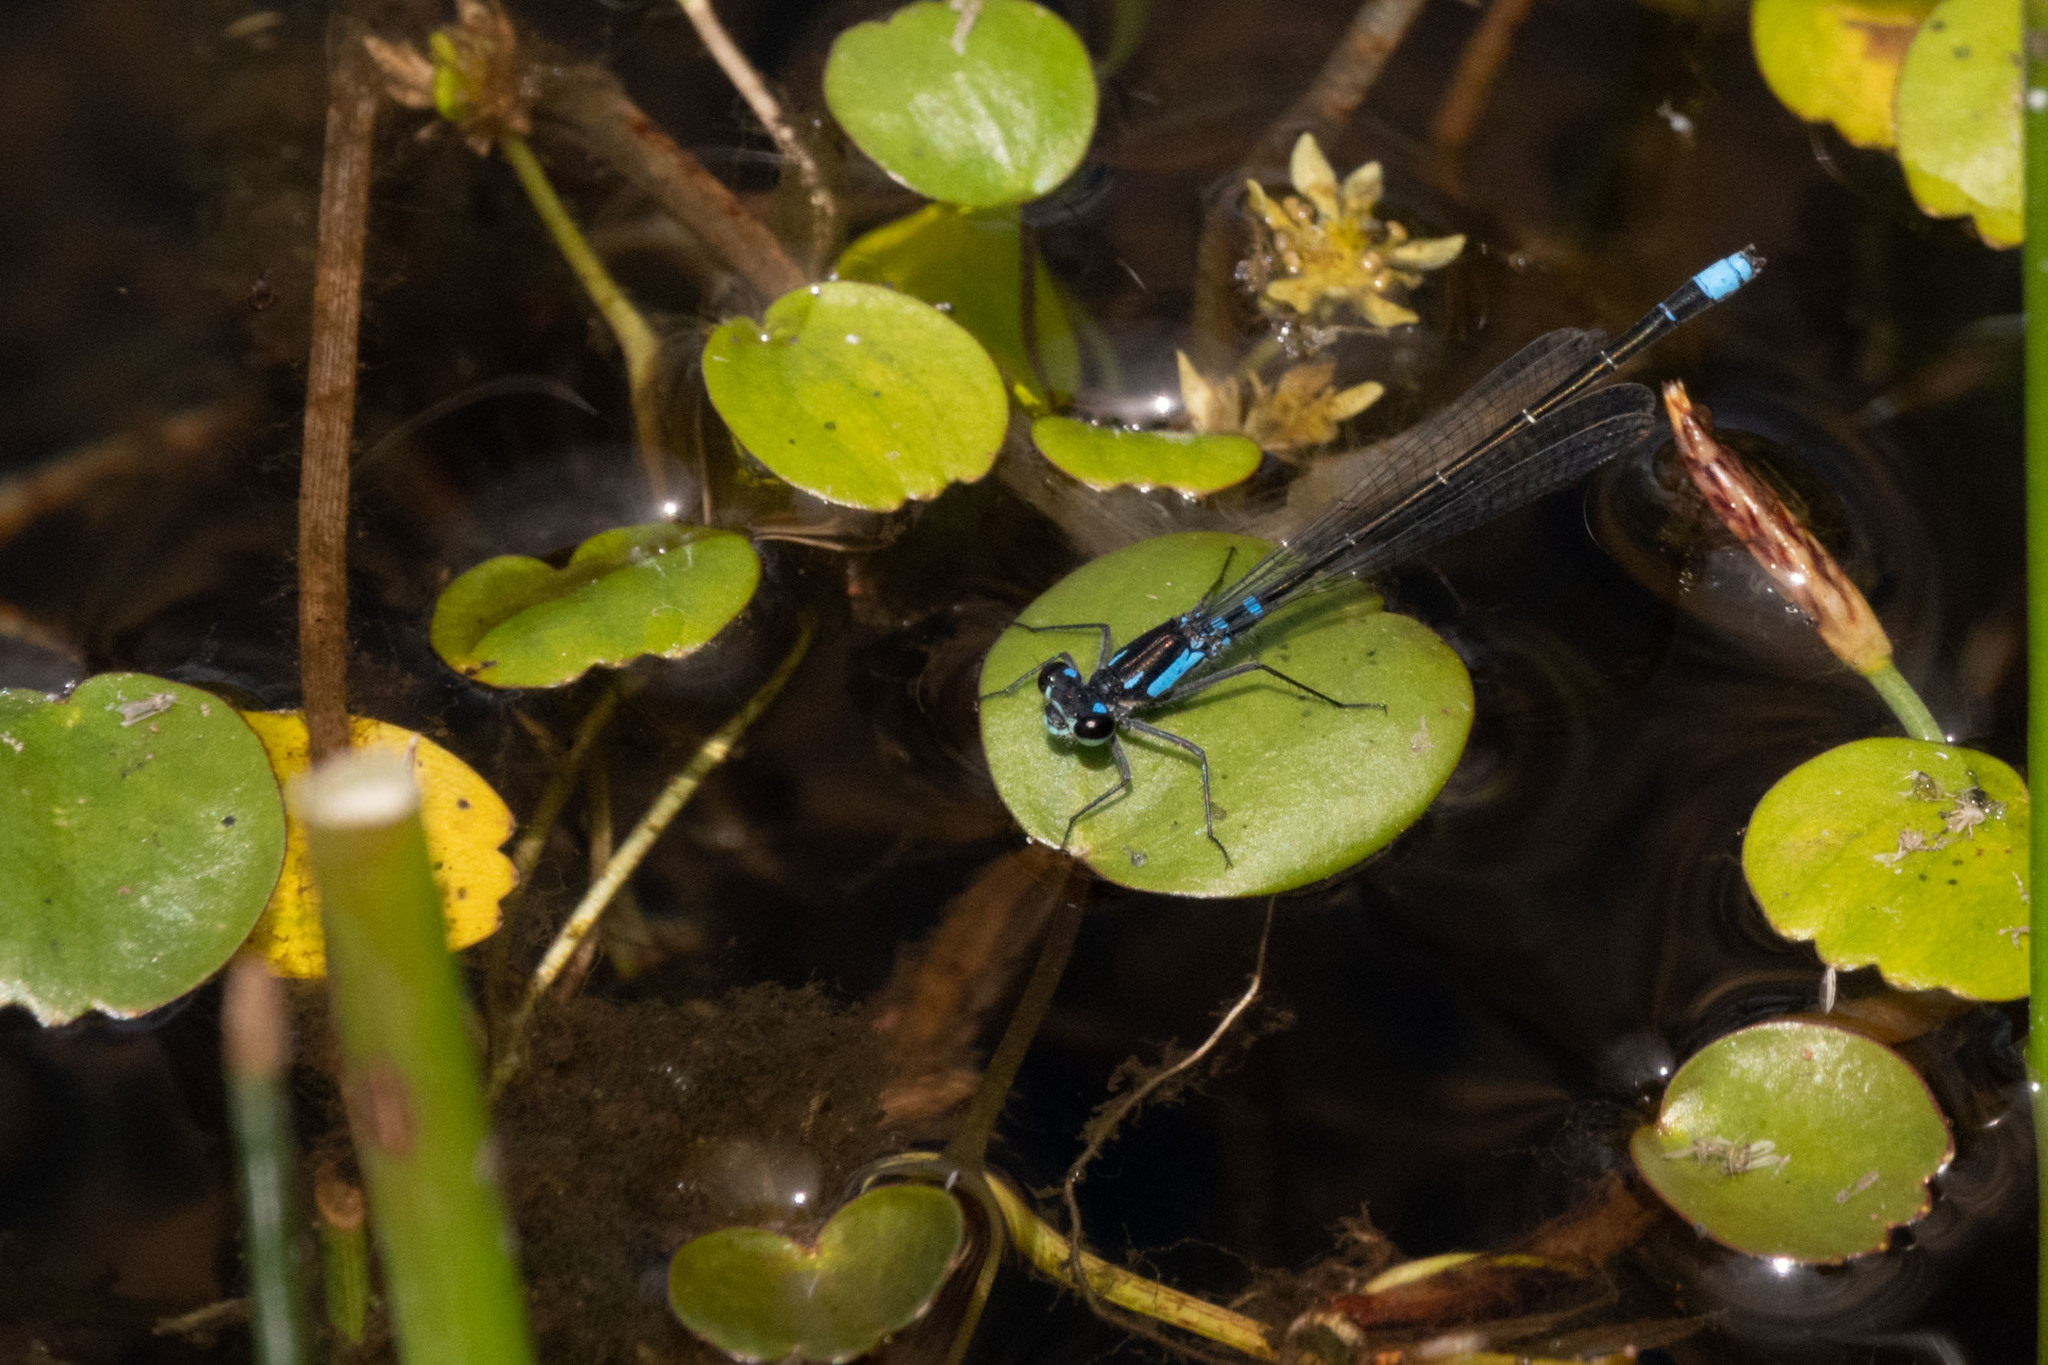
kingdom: Animalia
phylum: Arthropoda
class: Insecta
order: Odonata
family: Coenagrionidae
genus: Cyanallagma
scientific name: Cyanallagma interruptum
